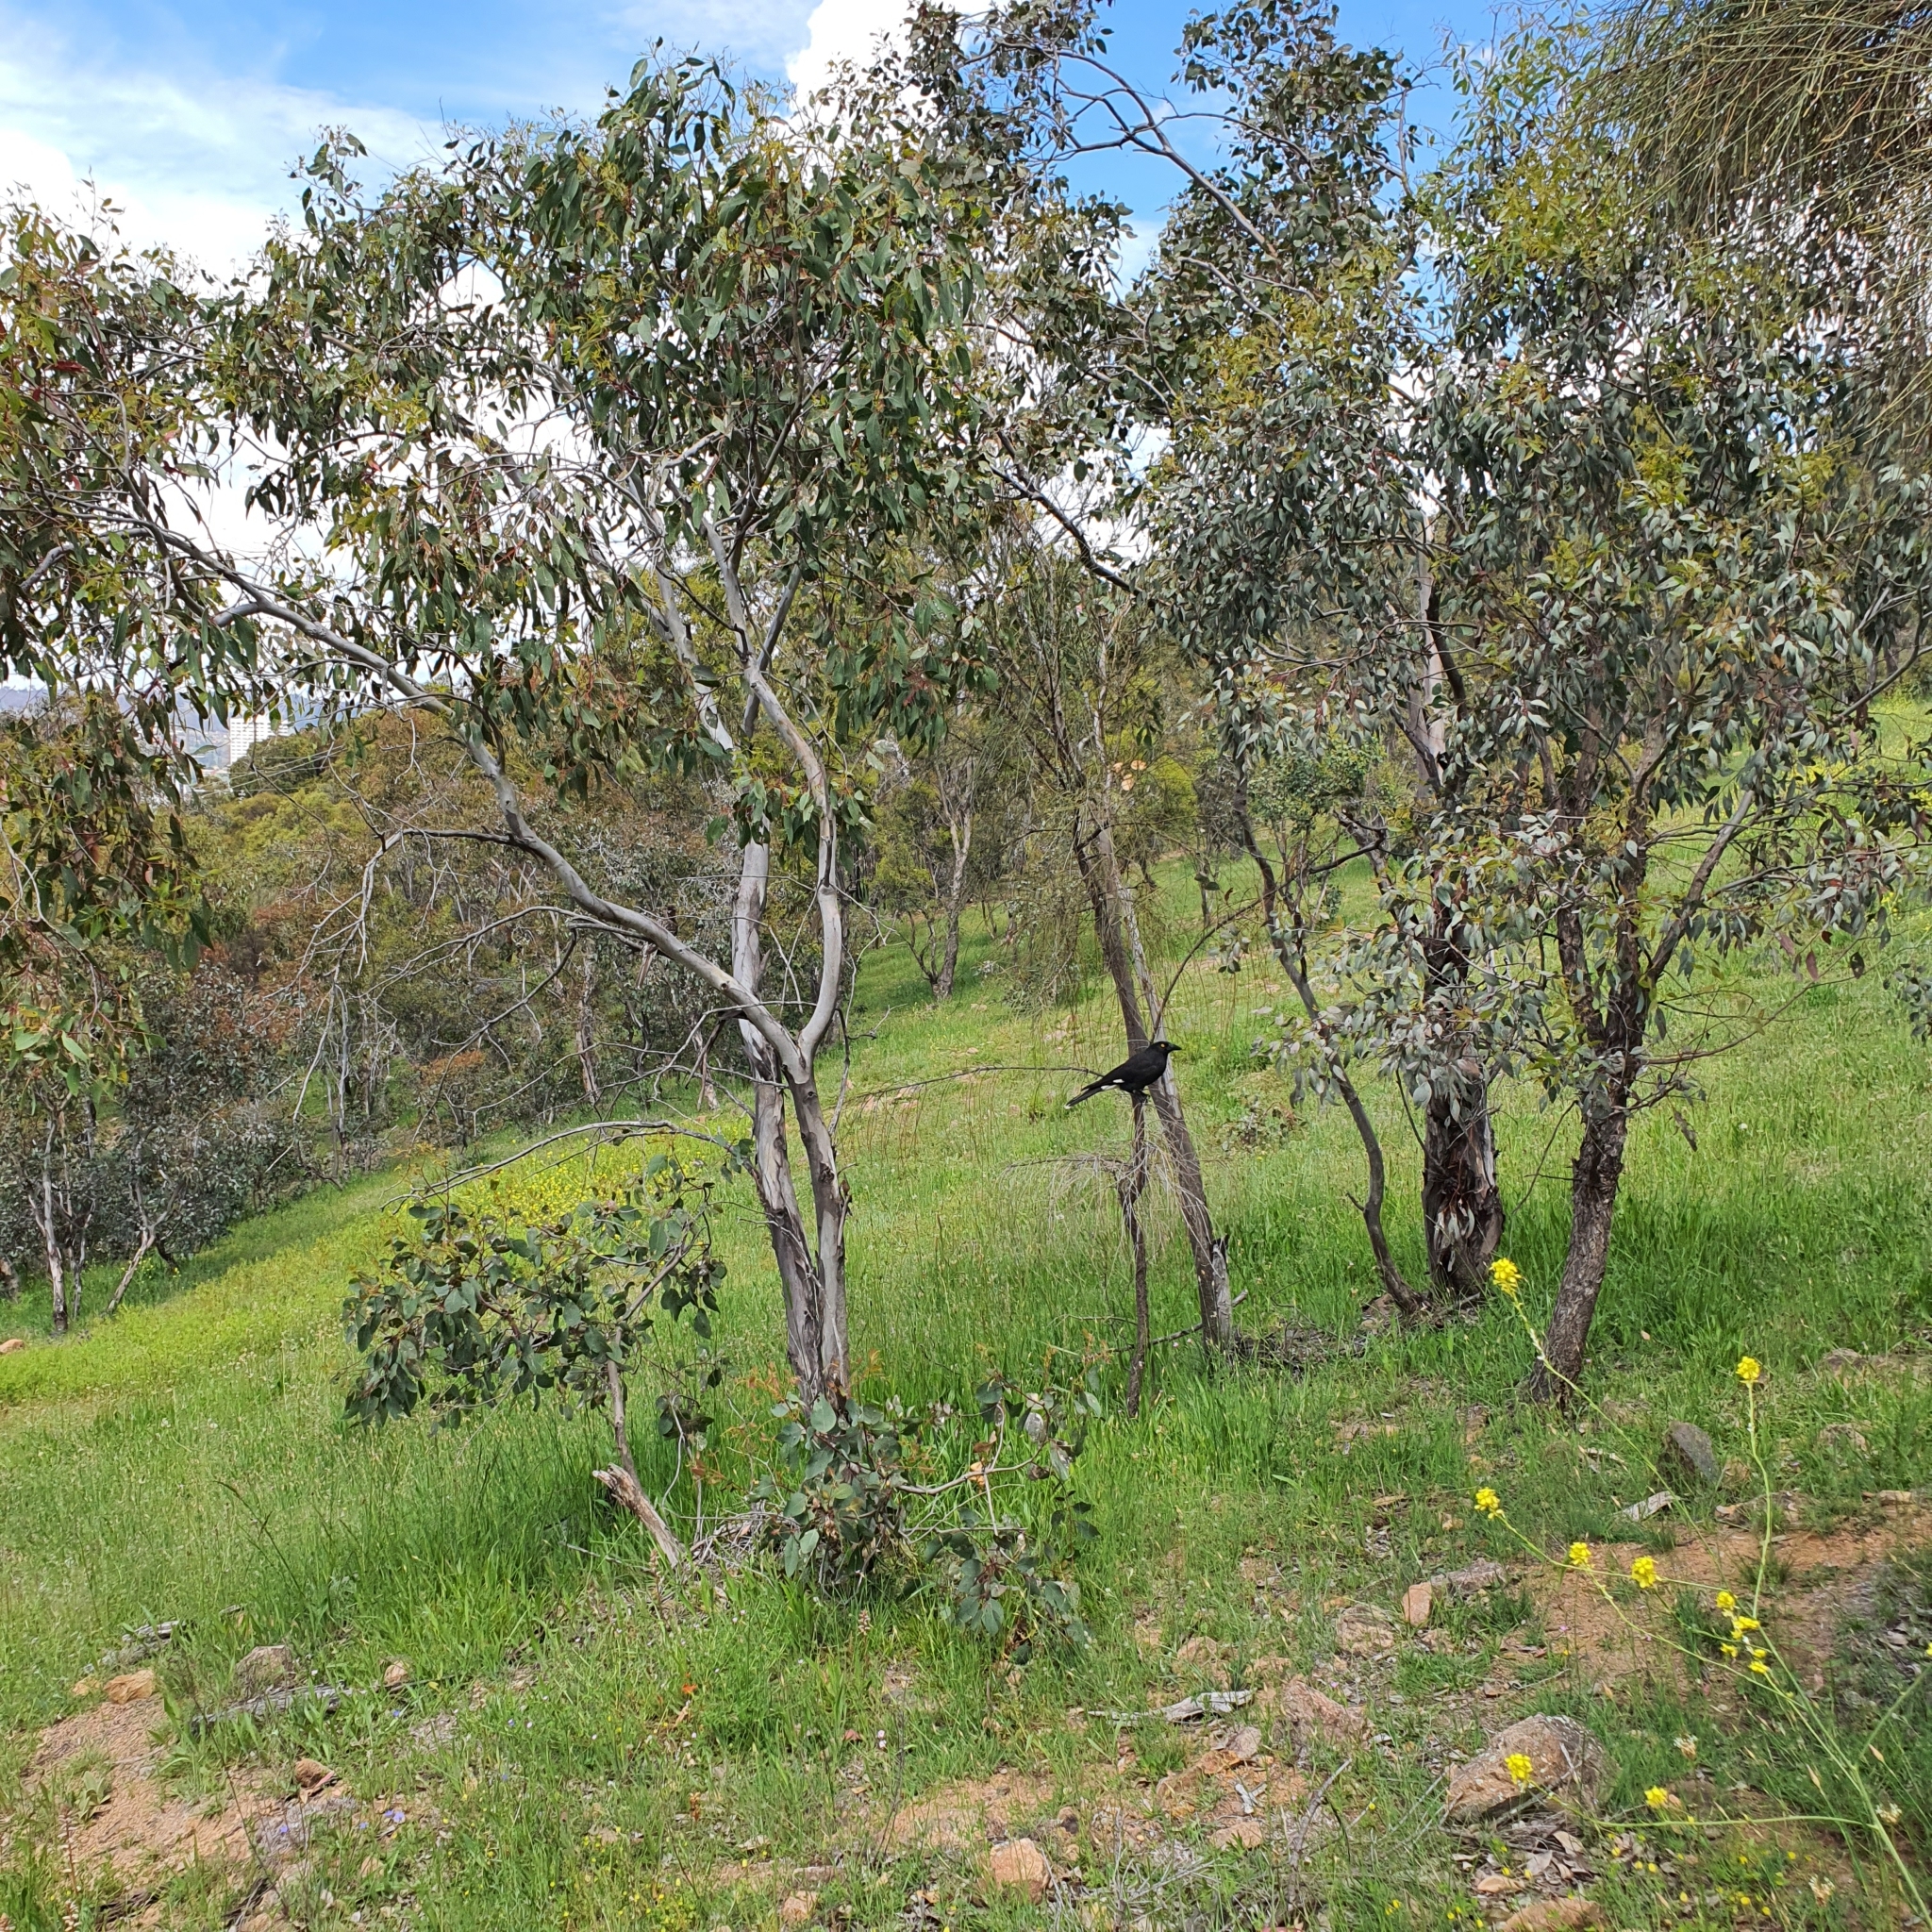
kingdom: Animalia
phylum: Chordata
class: Aves
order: Passeriformes
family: Cracticidae
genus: Strepera
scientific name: Strepera graculina
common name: Pied currawong
